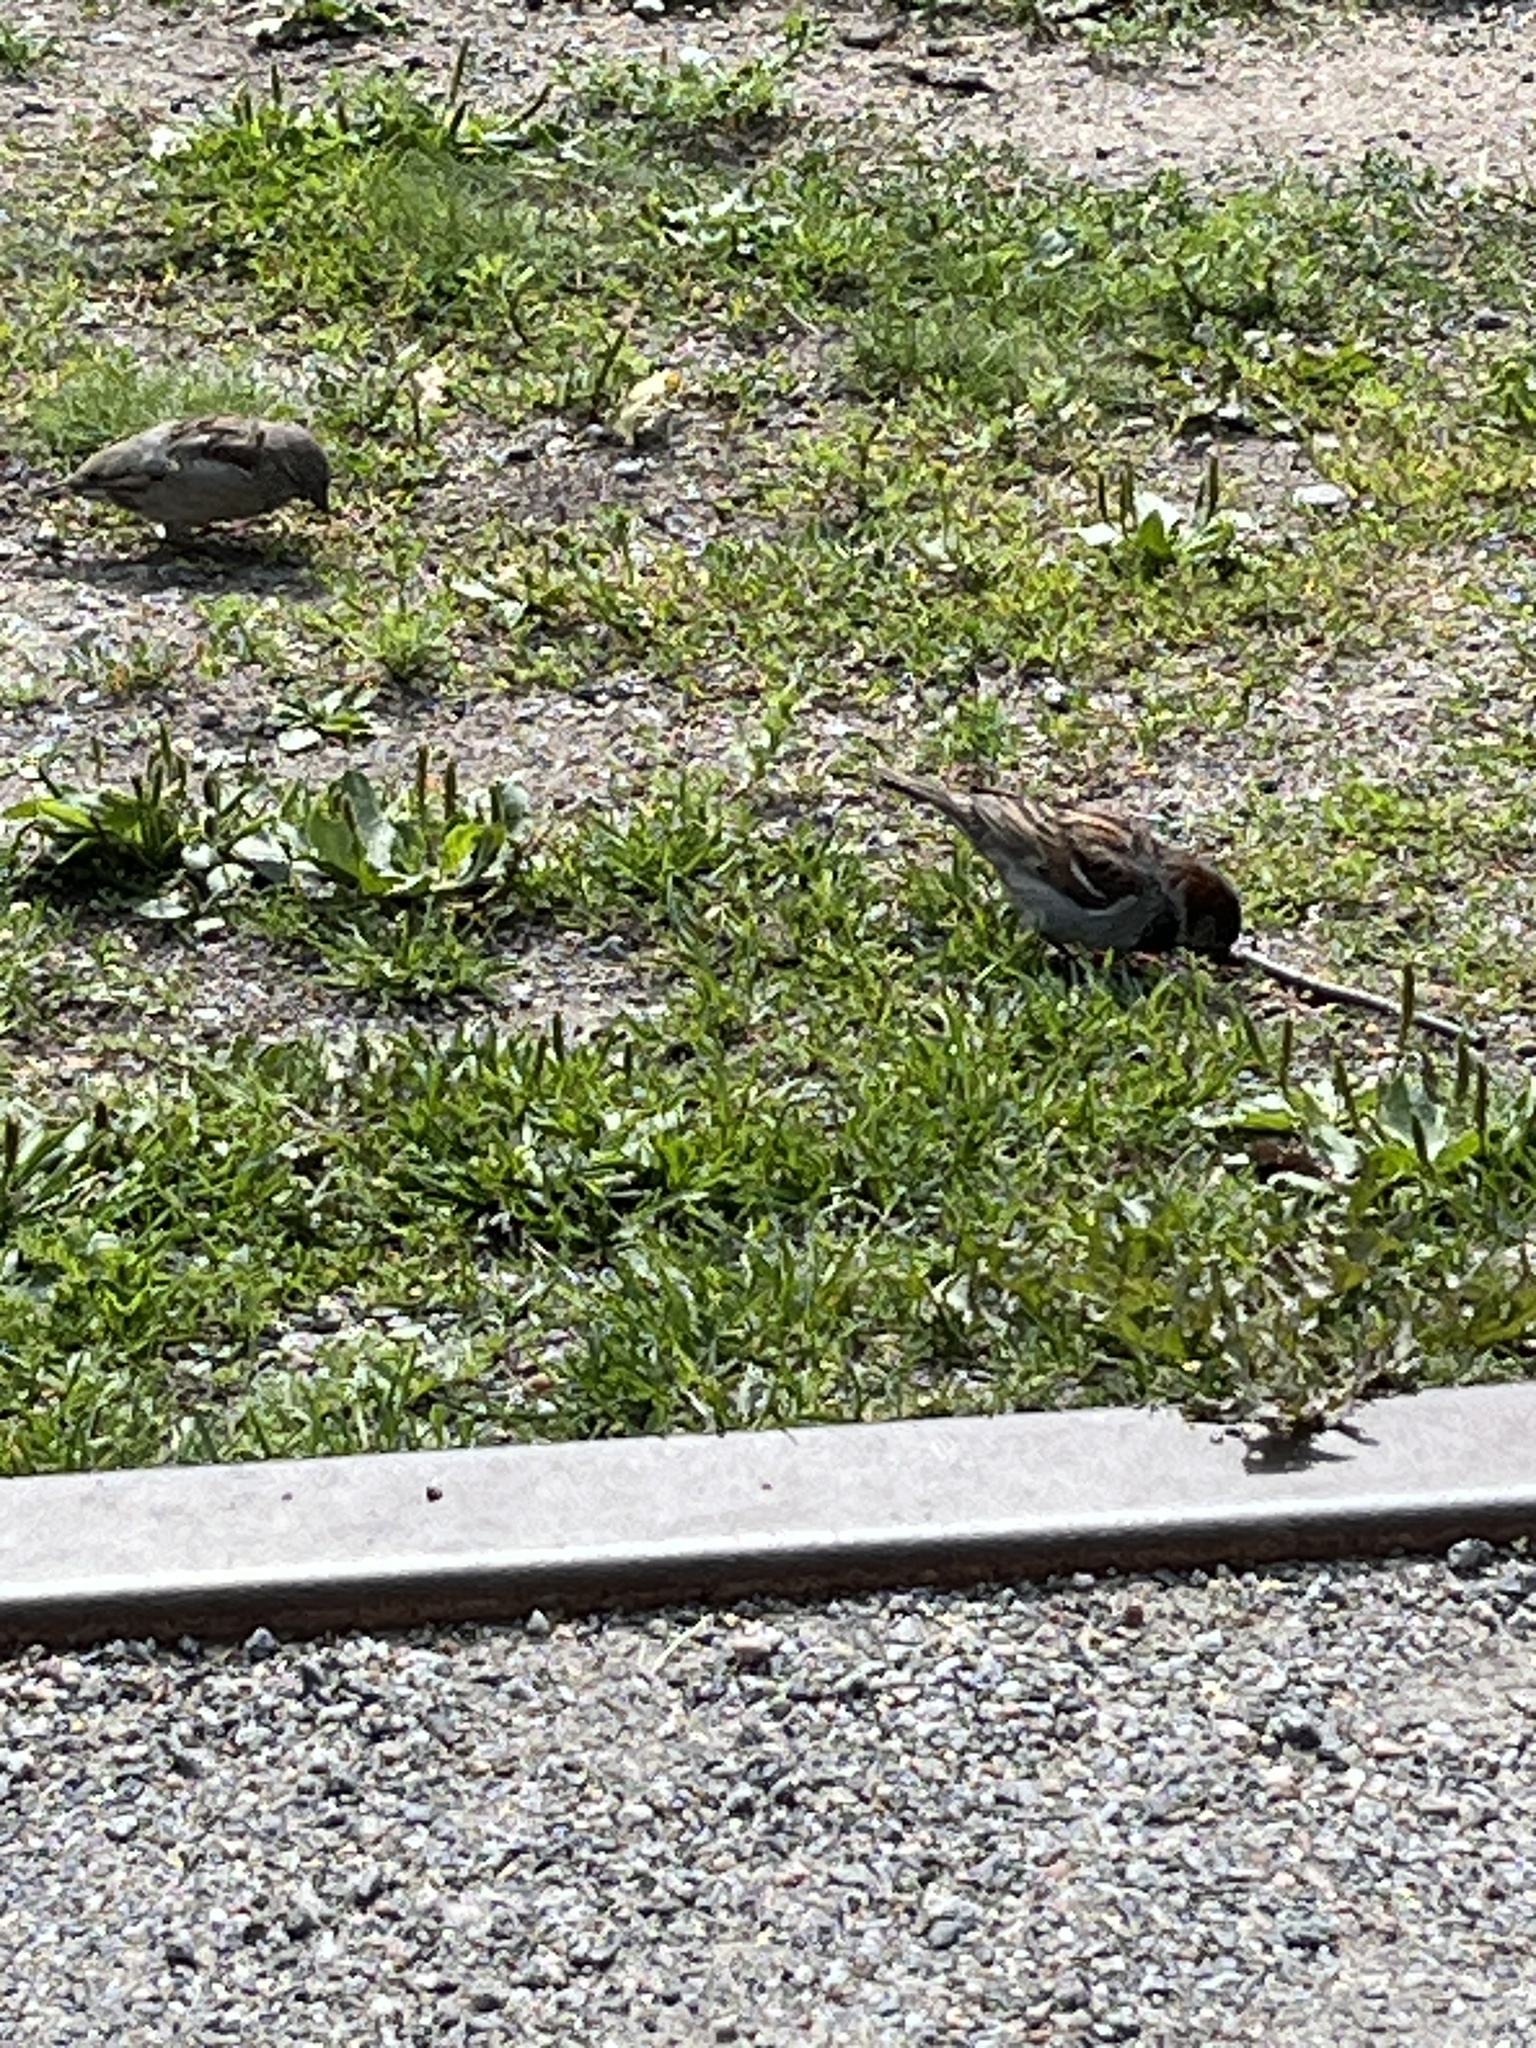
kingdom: Animalia
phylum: Chordata
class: Aves
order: Passeriformes
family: Passeridae
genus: Passer
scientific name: Passer domesticus
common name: House sparrow
